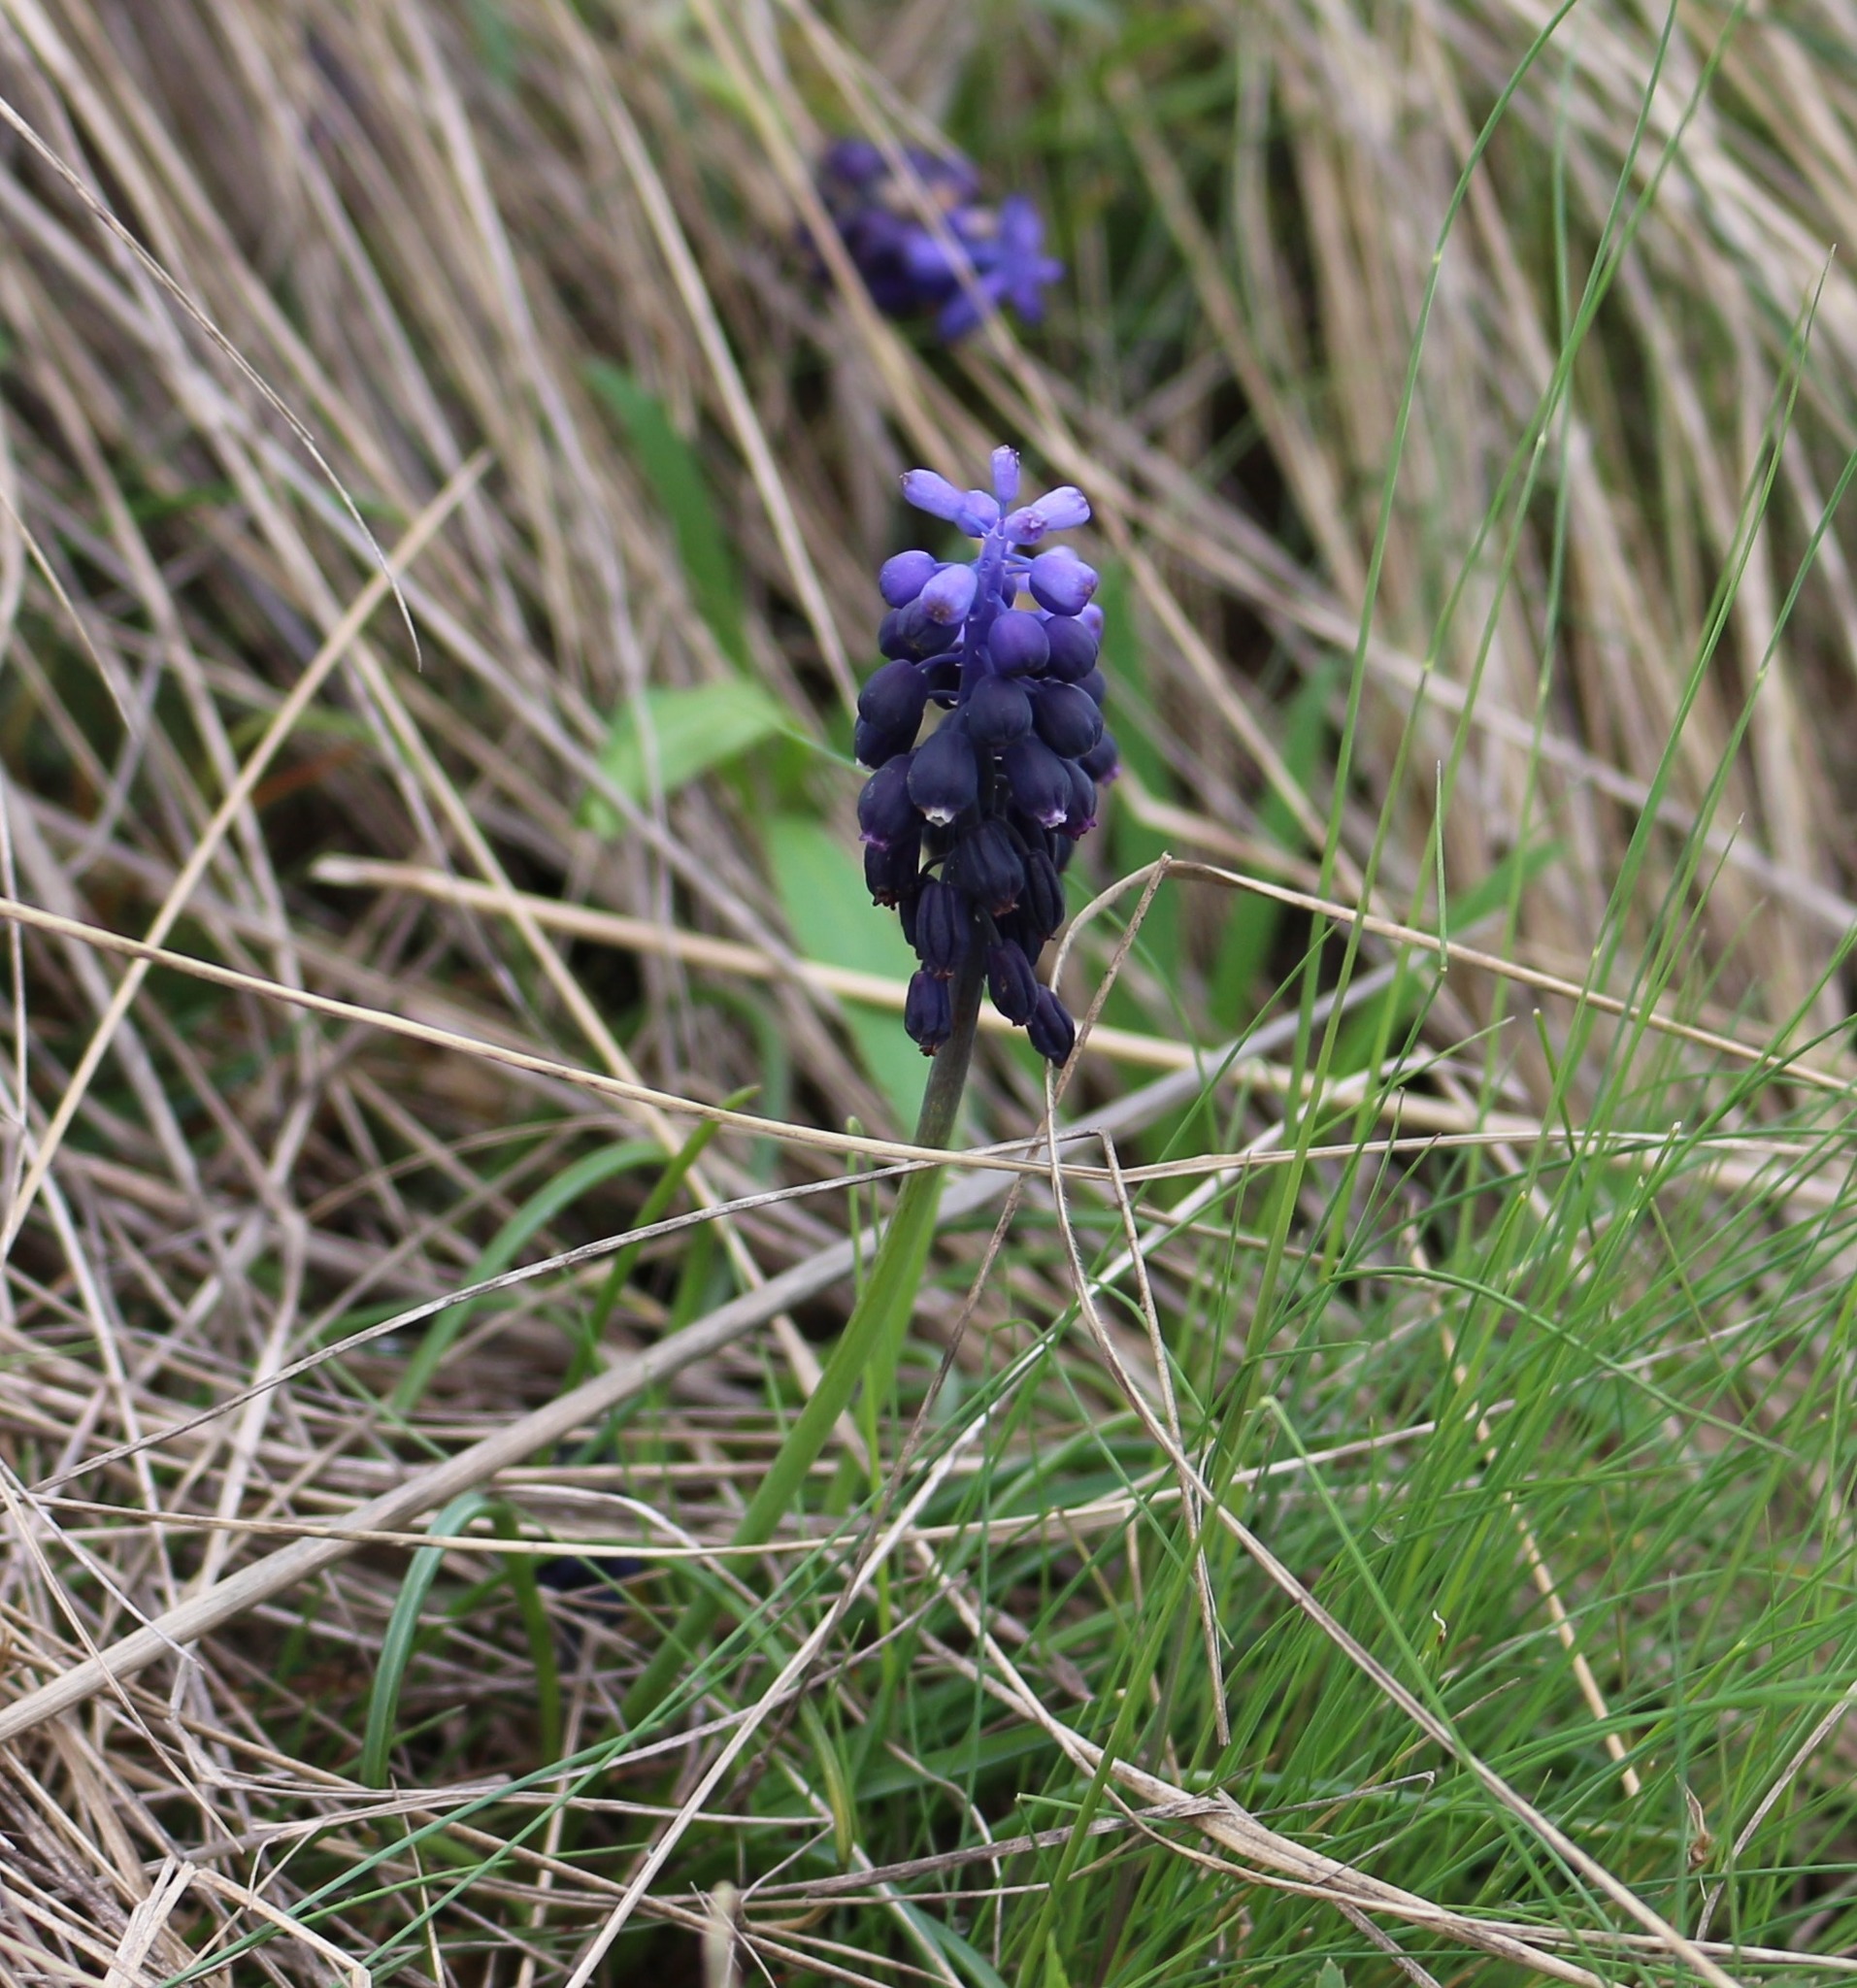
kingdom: Plantae
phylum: Tracheophyta
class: Liliopsida
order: Asparagales
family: Asparagaceae
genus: Muscari
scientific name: Muscari neglectum
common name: Grape-hyacinth
